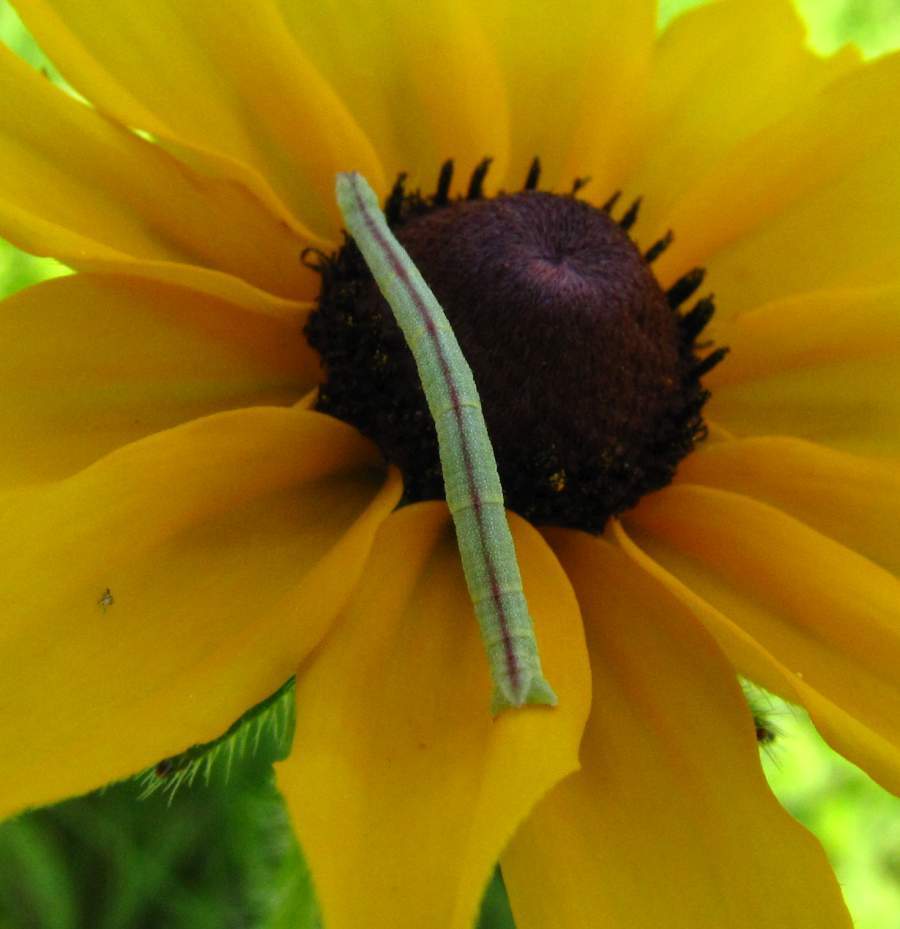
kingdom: Animalia
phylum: Arthropoda
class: Insecta
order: Lepidoptera
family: Geometridae
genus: Chlorochlamys
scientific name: Chlorochlamys chloroleucaria
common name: Blackberry looper
